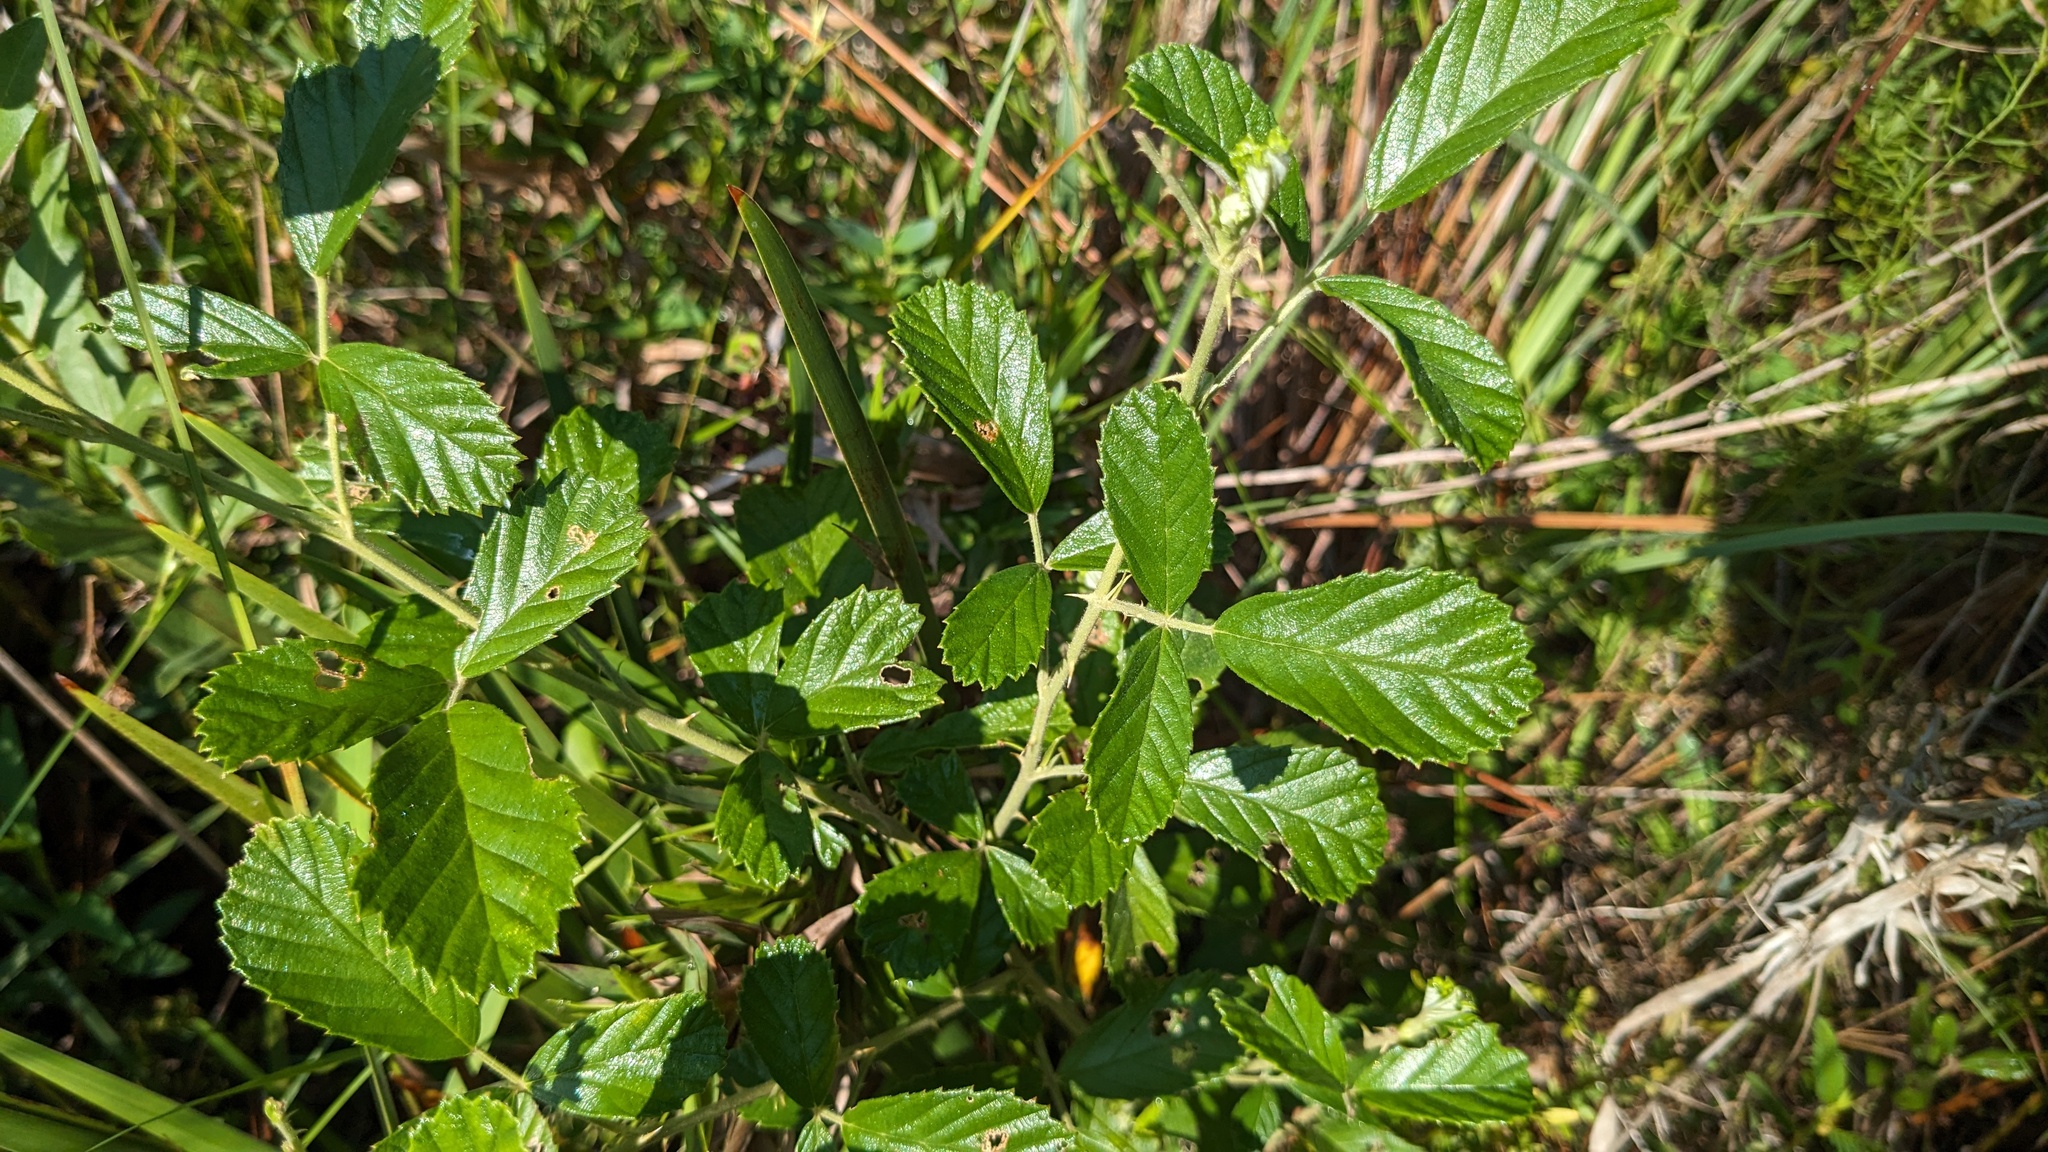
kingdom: Plantae
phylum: Tracheophyta
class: Magnoliopsida
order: Rosales
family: Rosaceae
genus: Rubus
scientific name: Rubus cuneifolius
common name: American bramble
